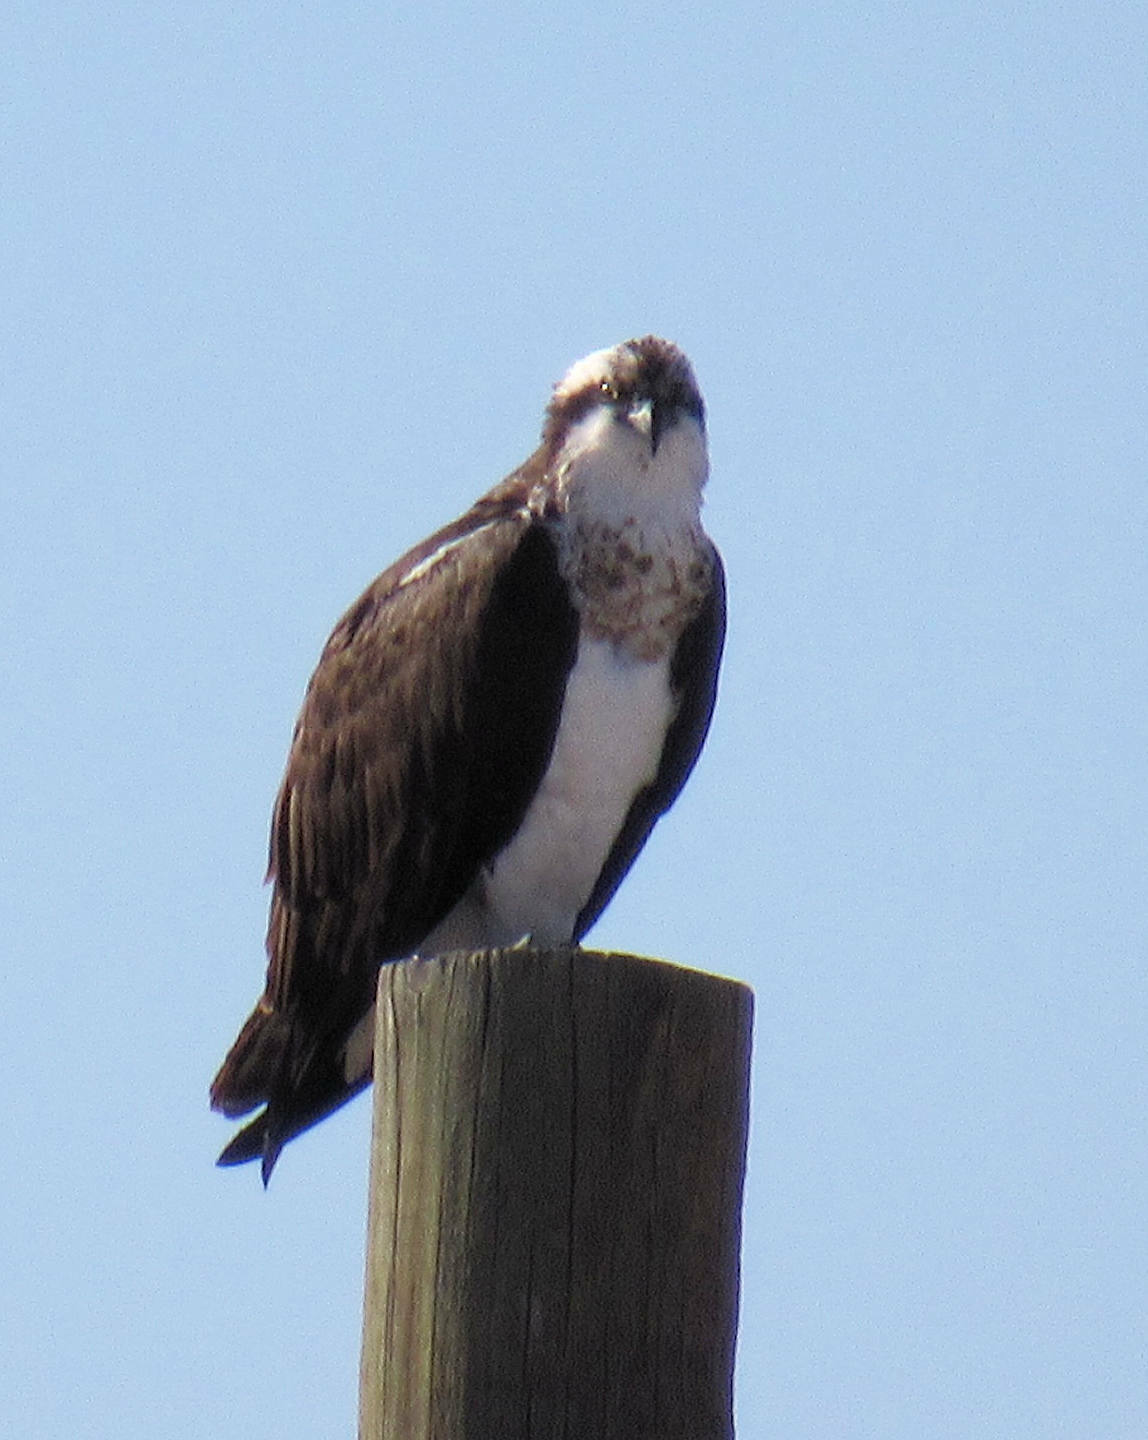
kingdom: Animalia
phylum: Chordata
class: Aves
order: Accipitriformes
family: Pandionidae
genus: Pandion
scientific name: Pandion haliaetus
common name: Osprey
